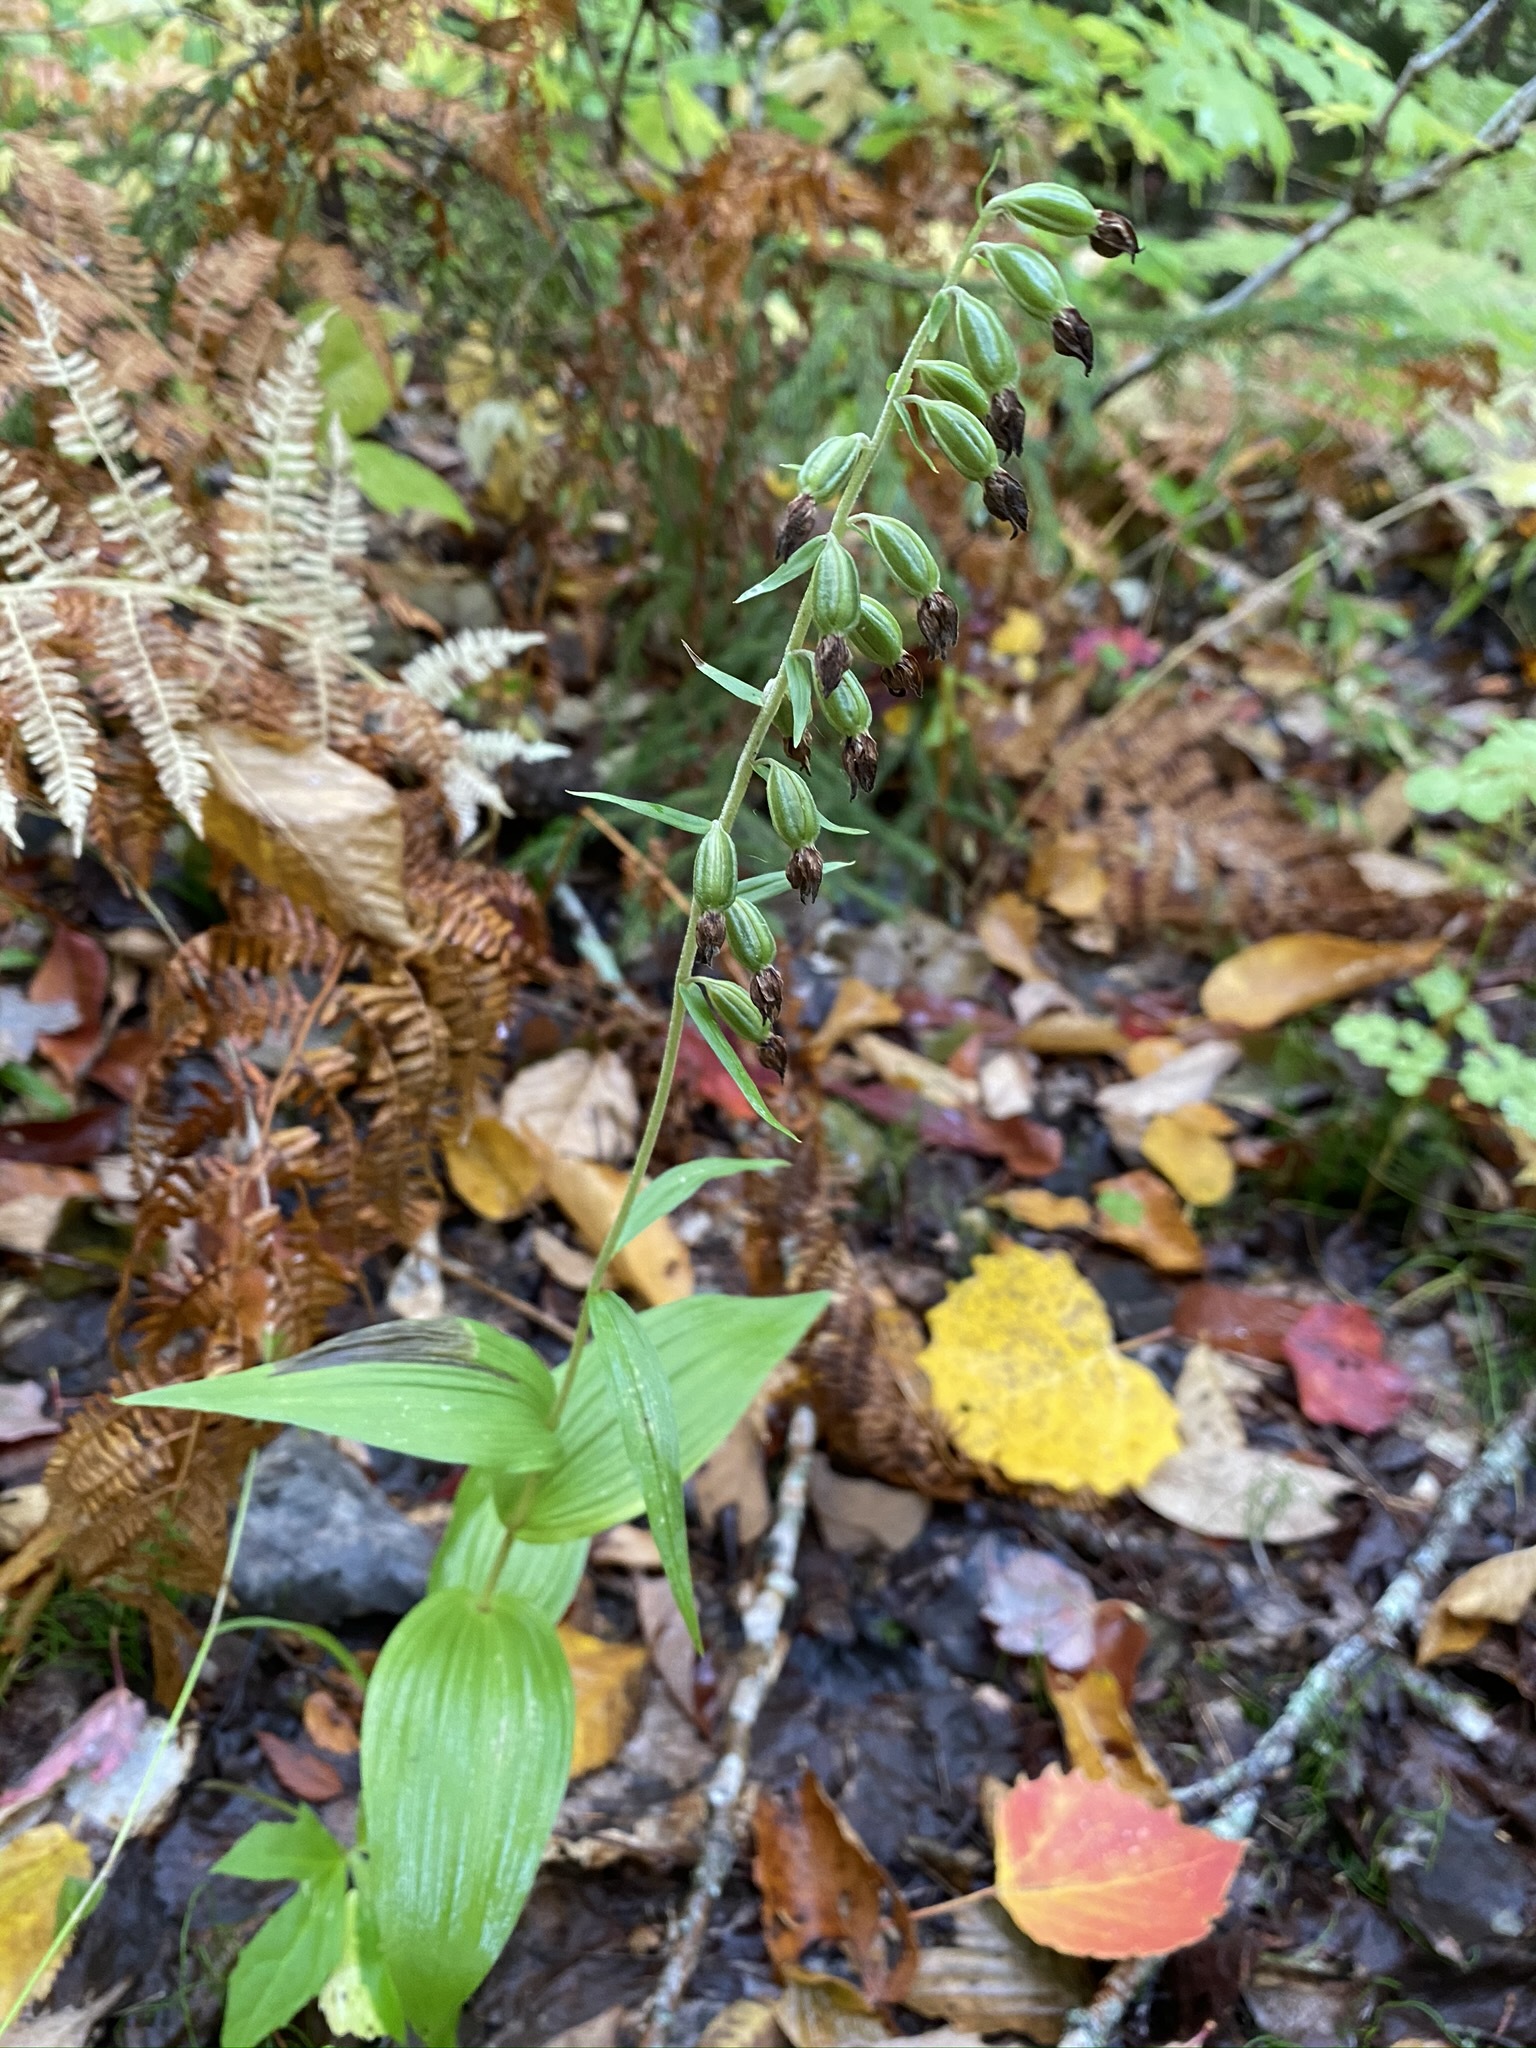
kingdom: Plantae
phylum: Tracheophyta
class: Liliopsida
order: Asparagales
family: Orchidaceae
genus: Epipactis
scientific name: Epipactis helleborine
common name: Broad-leaved helleborine
